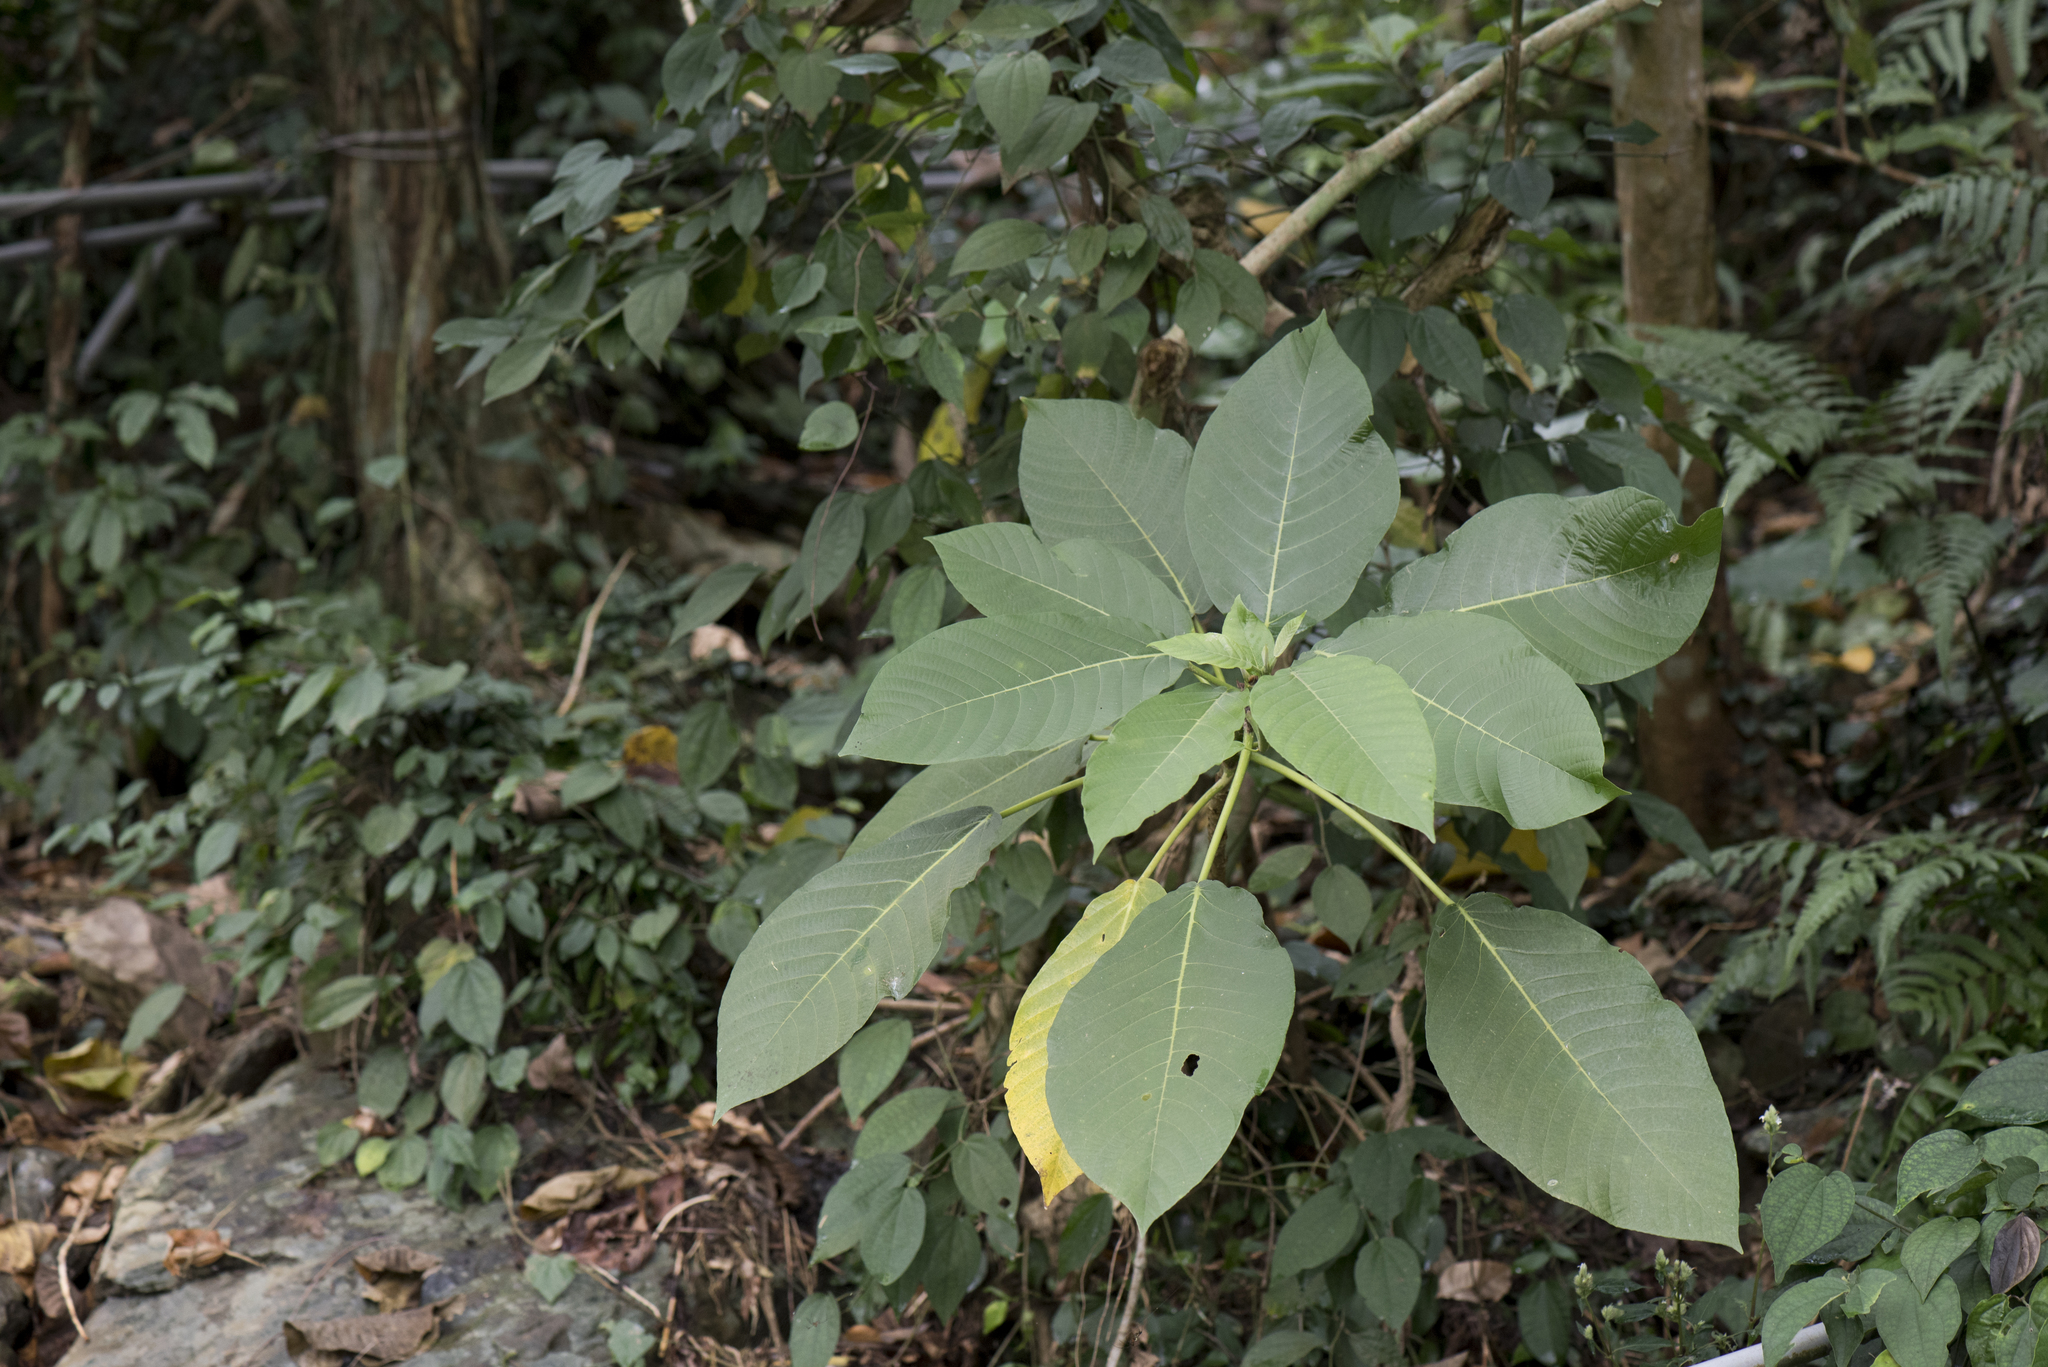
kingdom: Plantae
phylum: Tracheophyta
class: Magnoliopsida
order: Rosales
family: Urticaceae
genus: Dendrocnide
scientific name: Dendrocnide meyeniana
